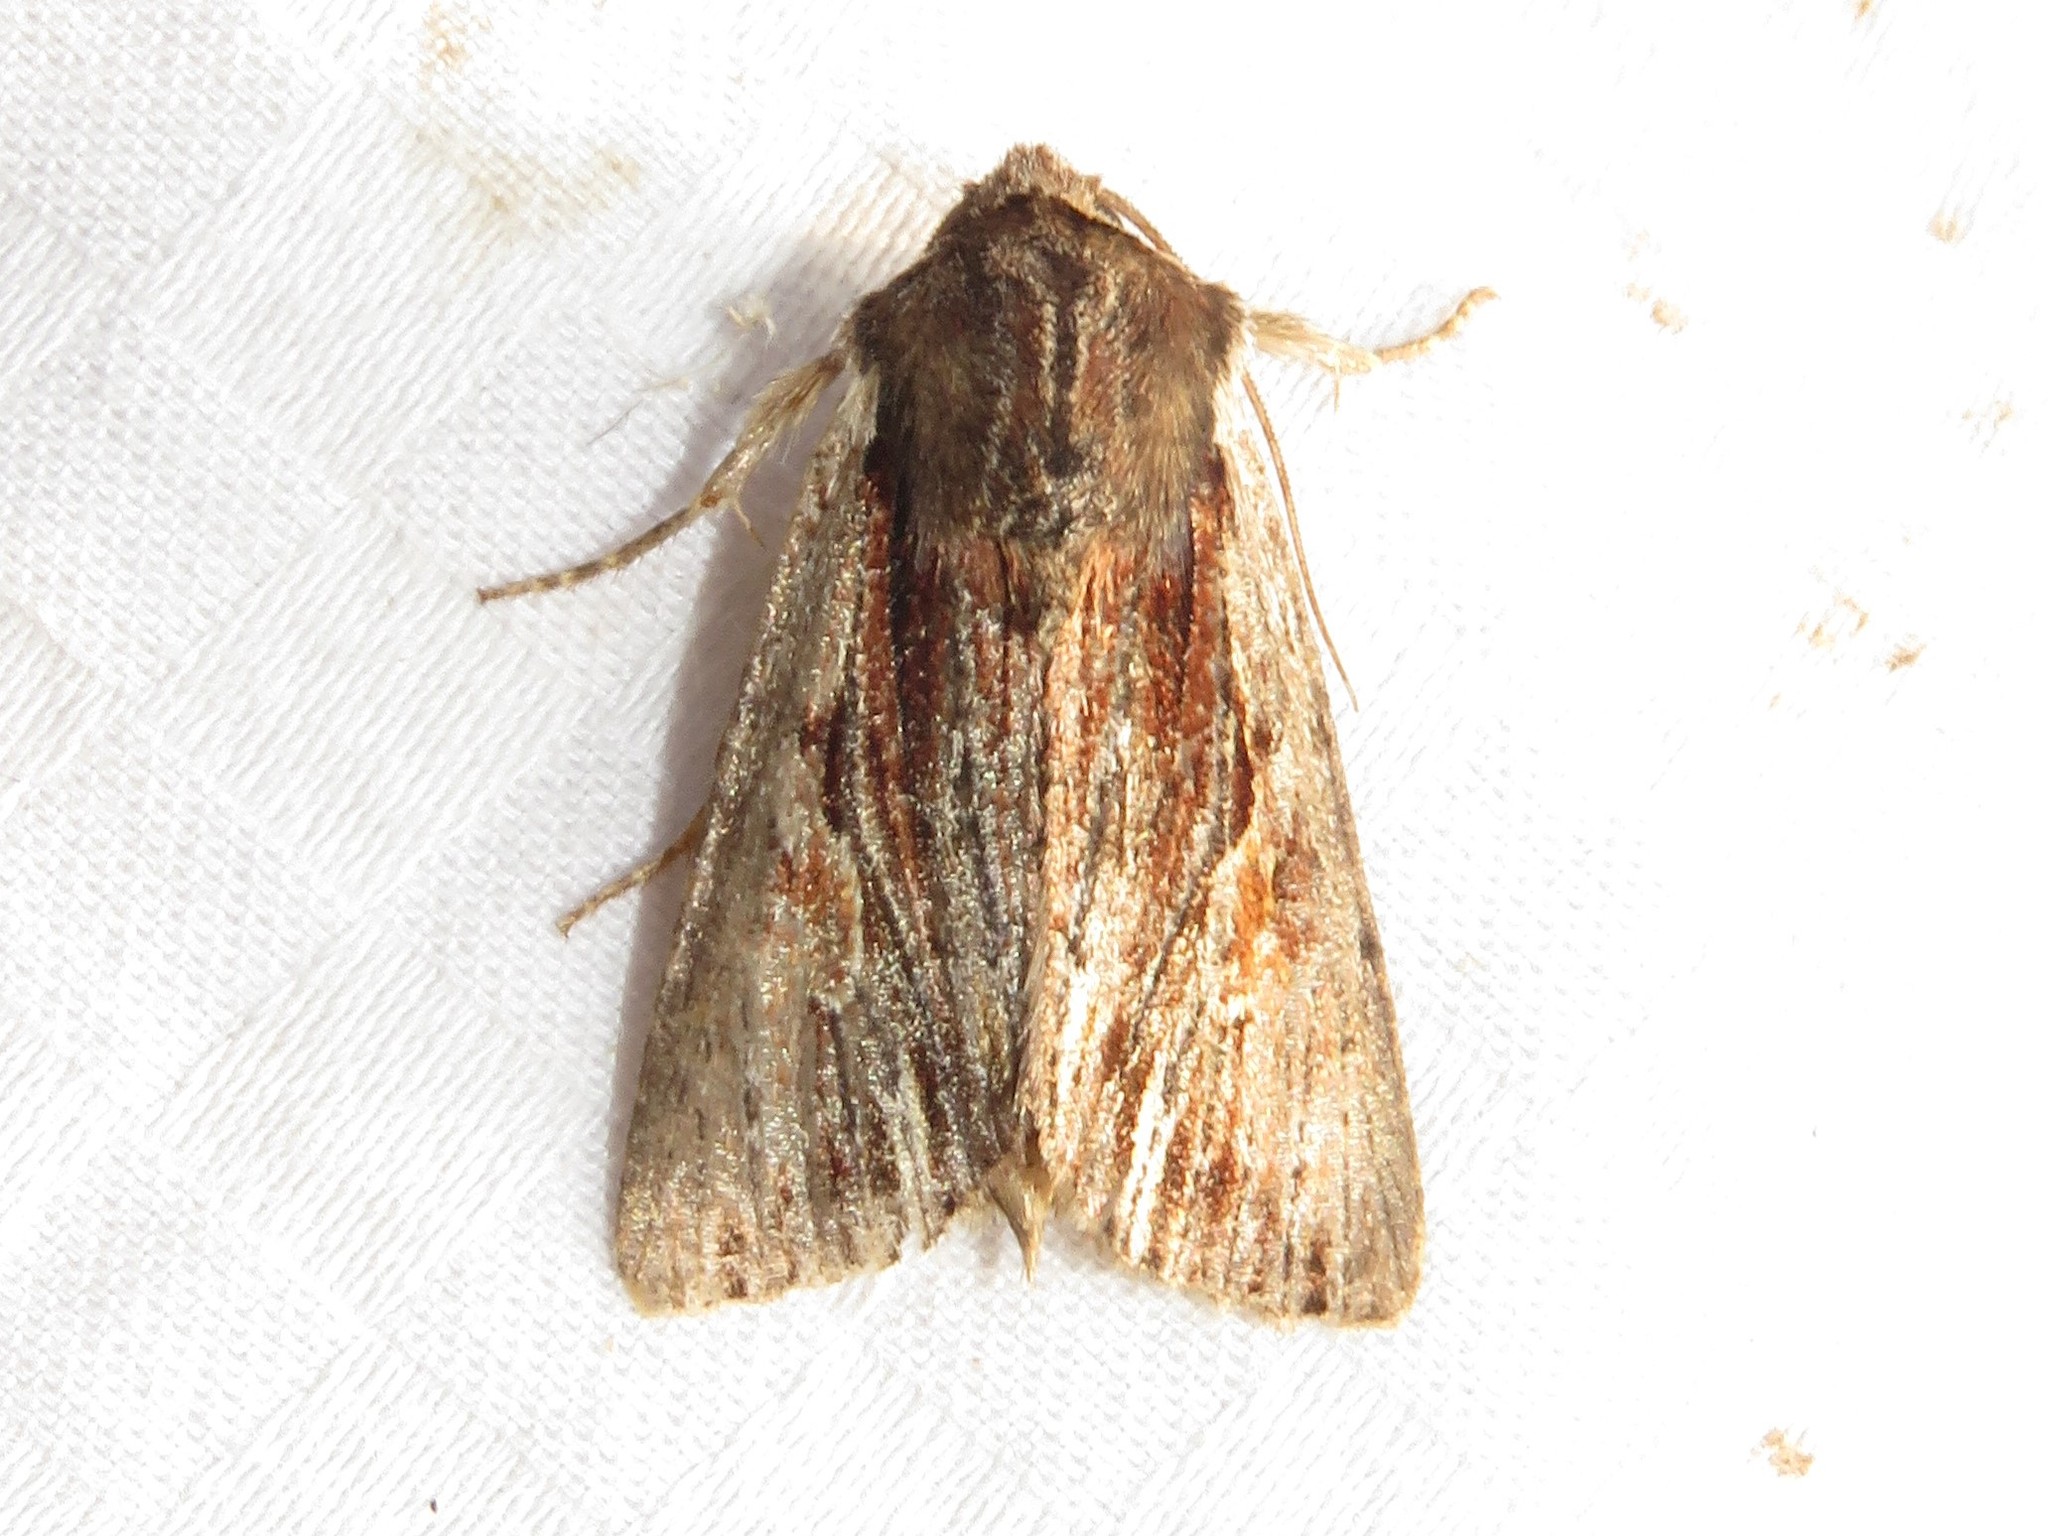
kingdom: Animalia
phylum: Arthropoda
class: Insecta
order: Lepidoptera
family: Noctuidae
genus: Achatia
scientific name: Achatia evicta
